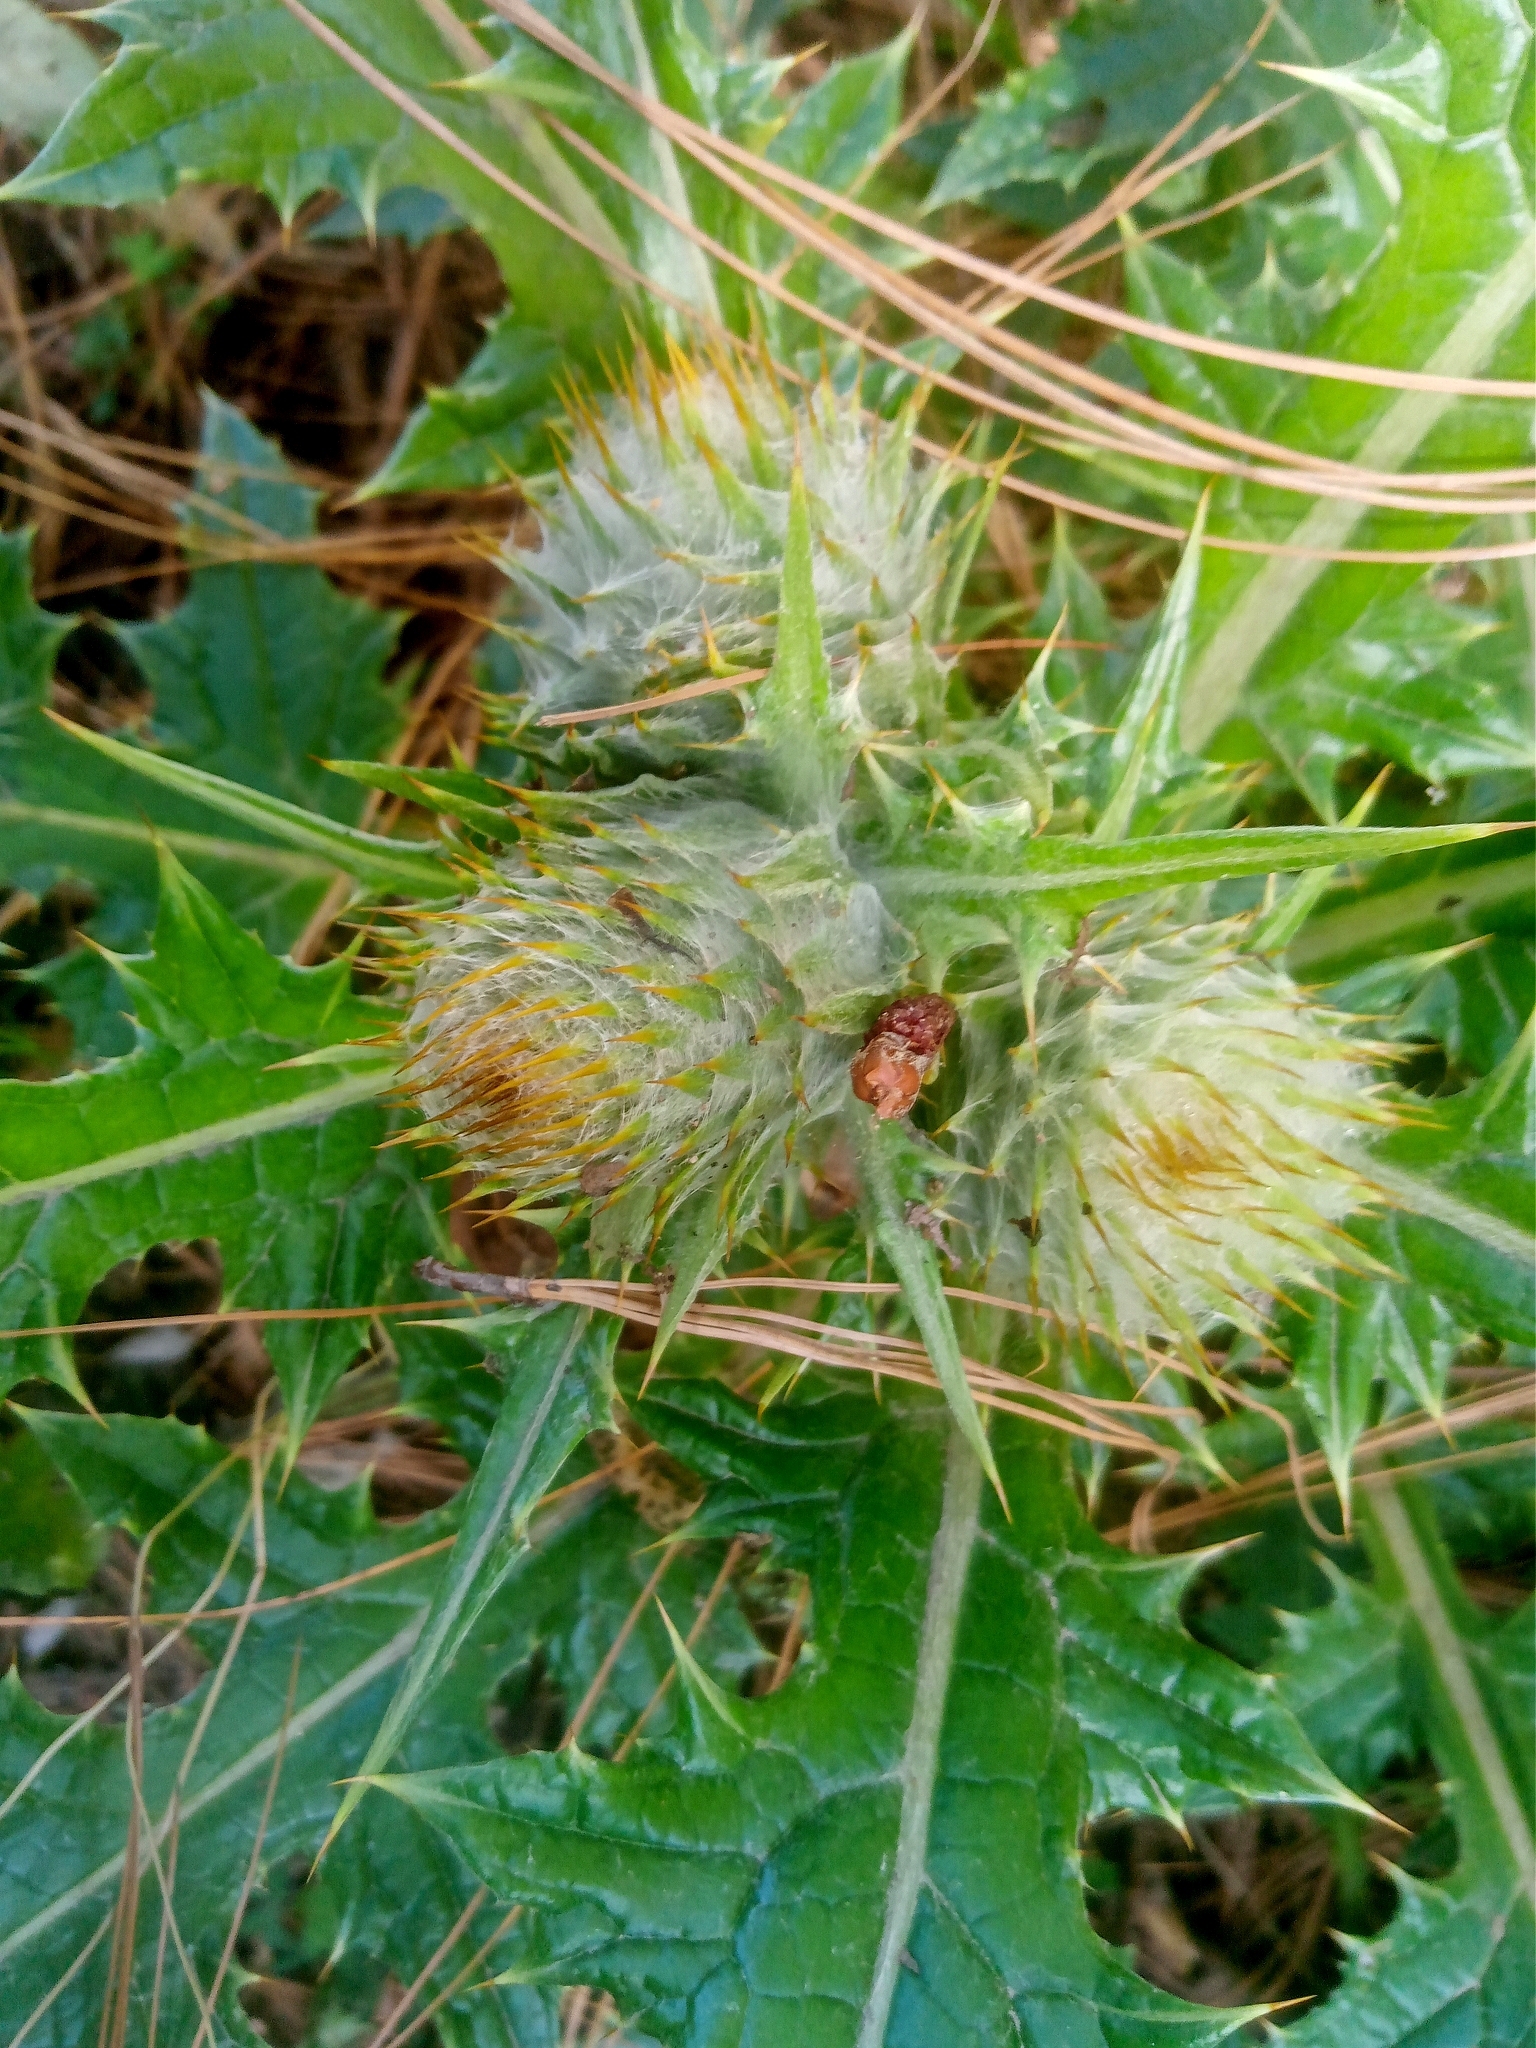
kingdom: Plantae
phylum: Tracheophyta
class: Magnoliopsida
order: Asterales
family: Asteraceae
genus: Cirsium
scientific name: Cirsium ehrenbergii
